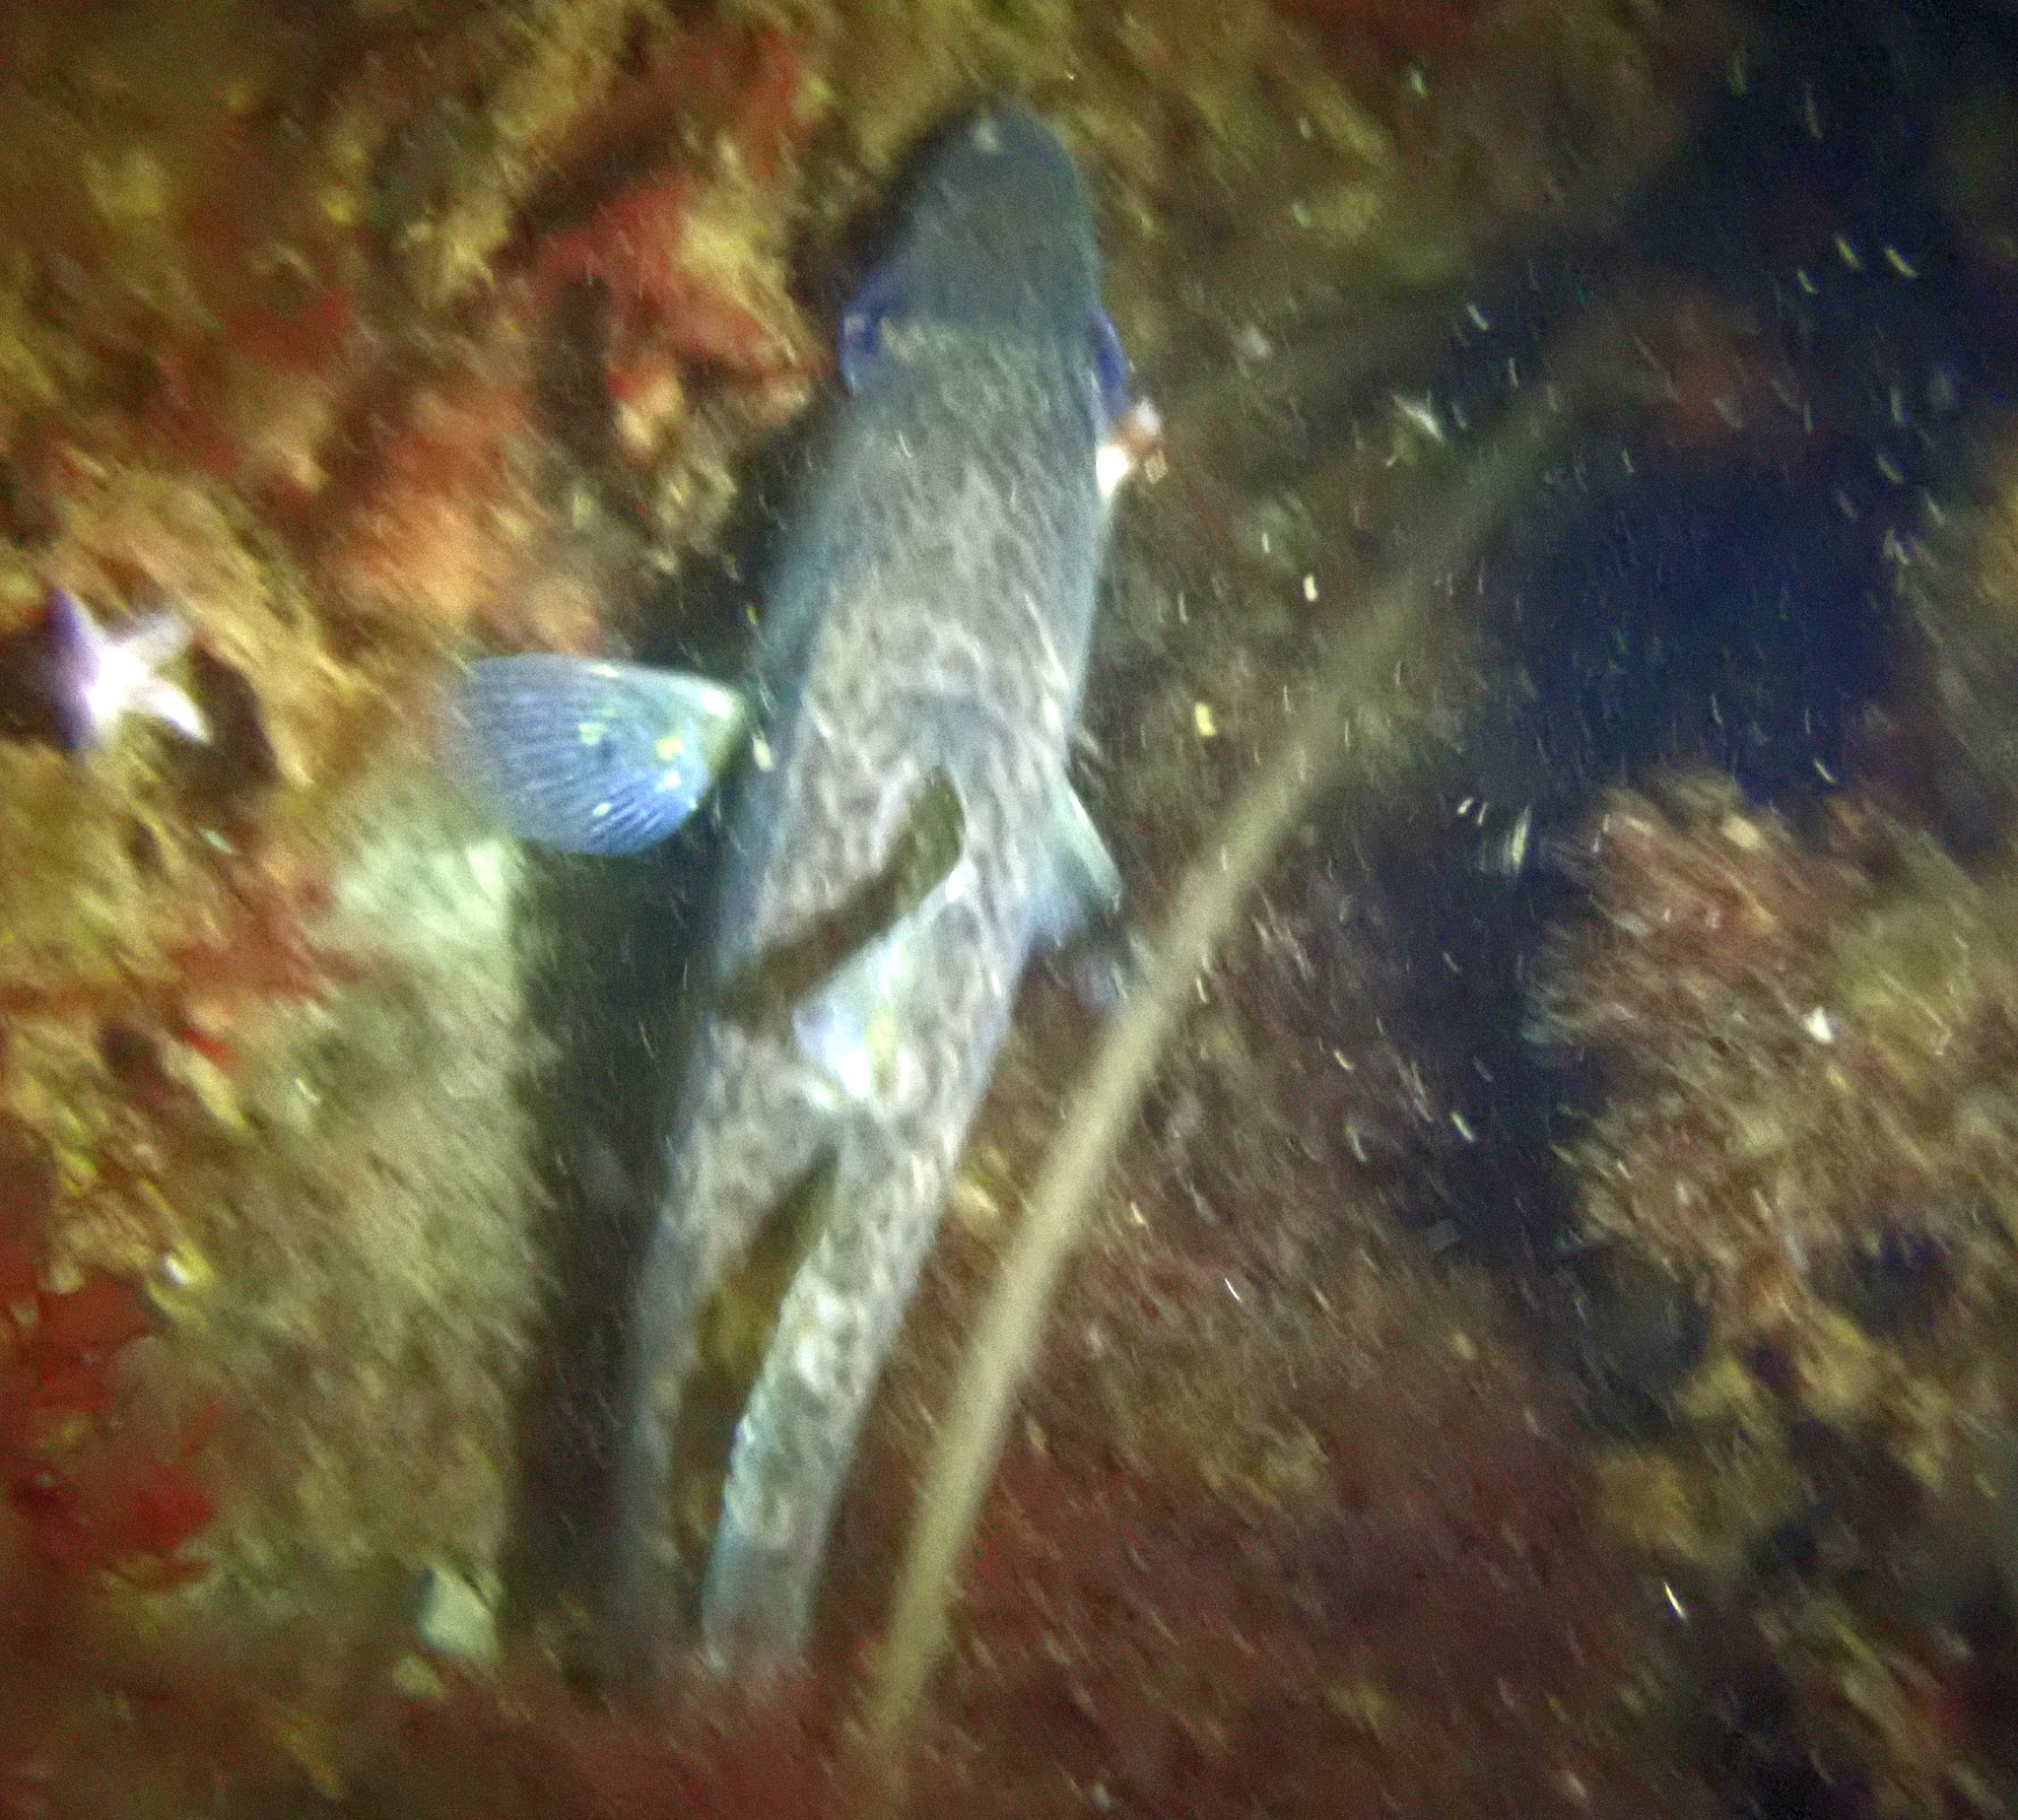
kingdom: Animalia
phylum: Chordata
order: Gadiformes
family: Gadidae
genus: Gadus
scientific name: Gadus morhua
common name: Atlantic cod
